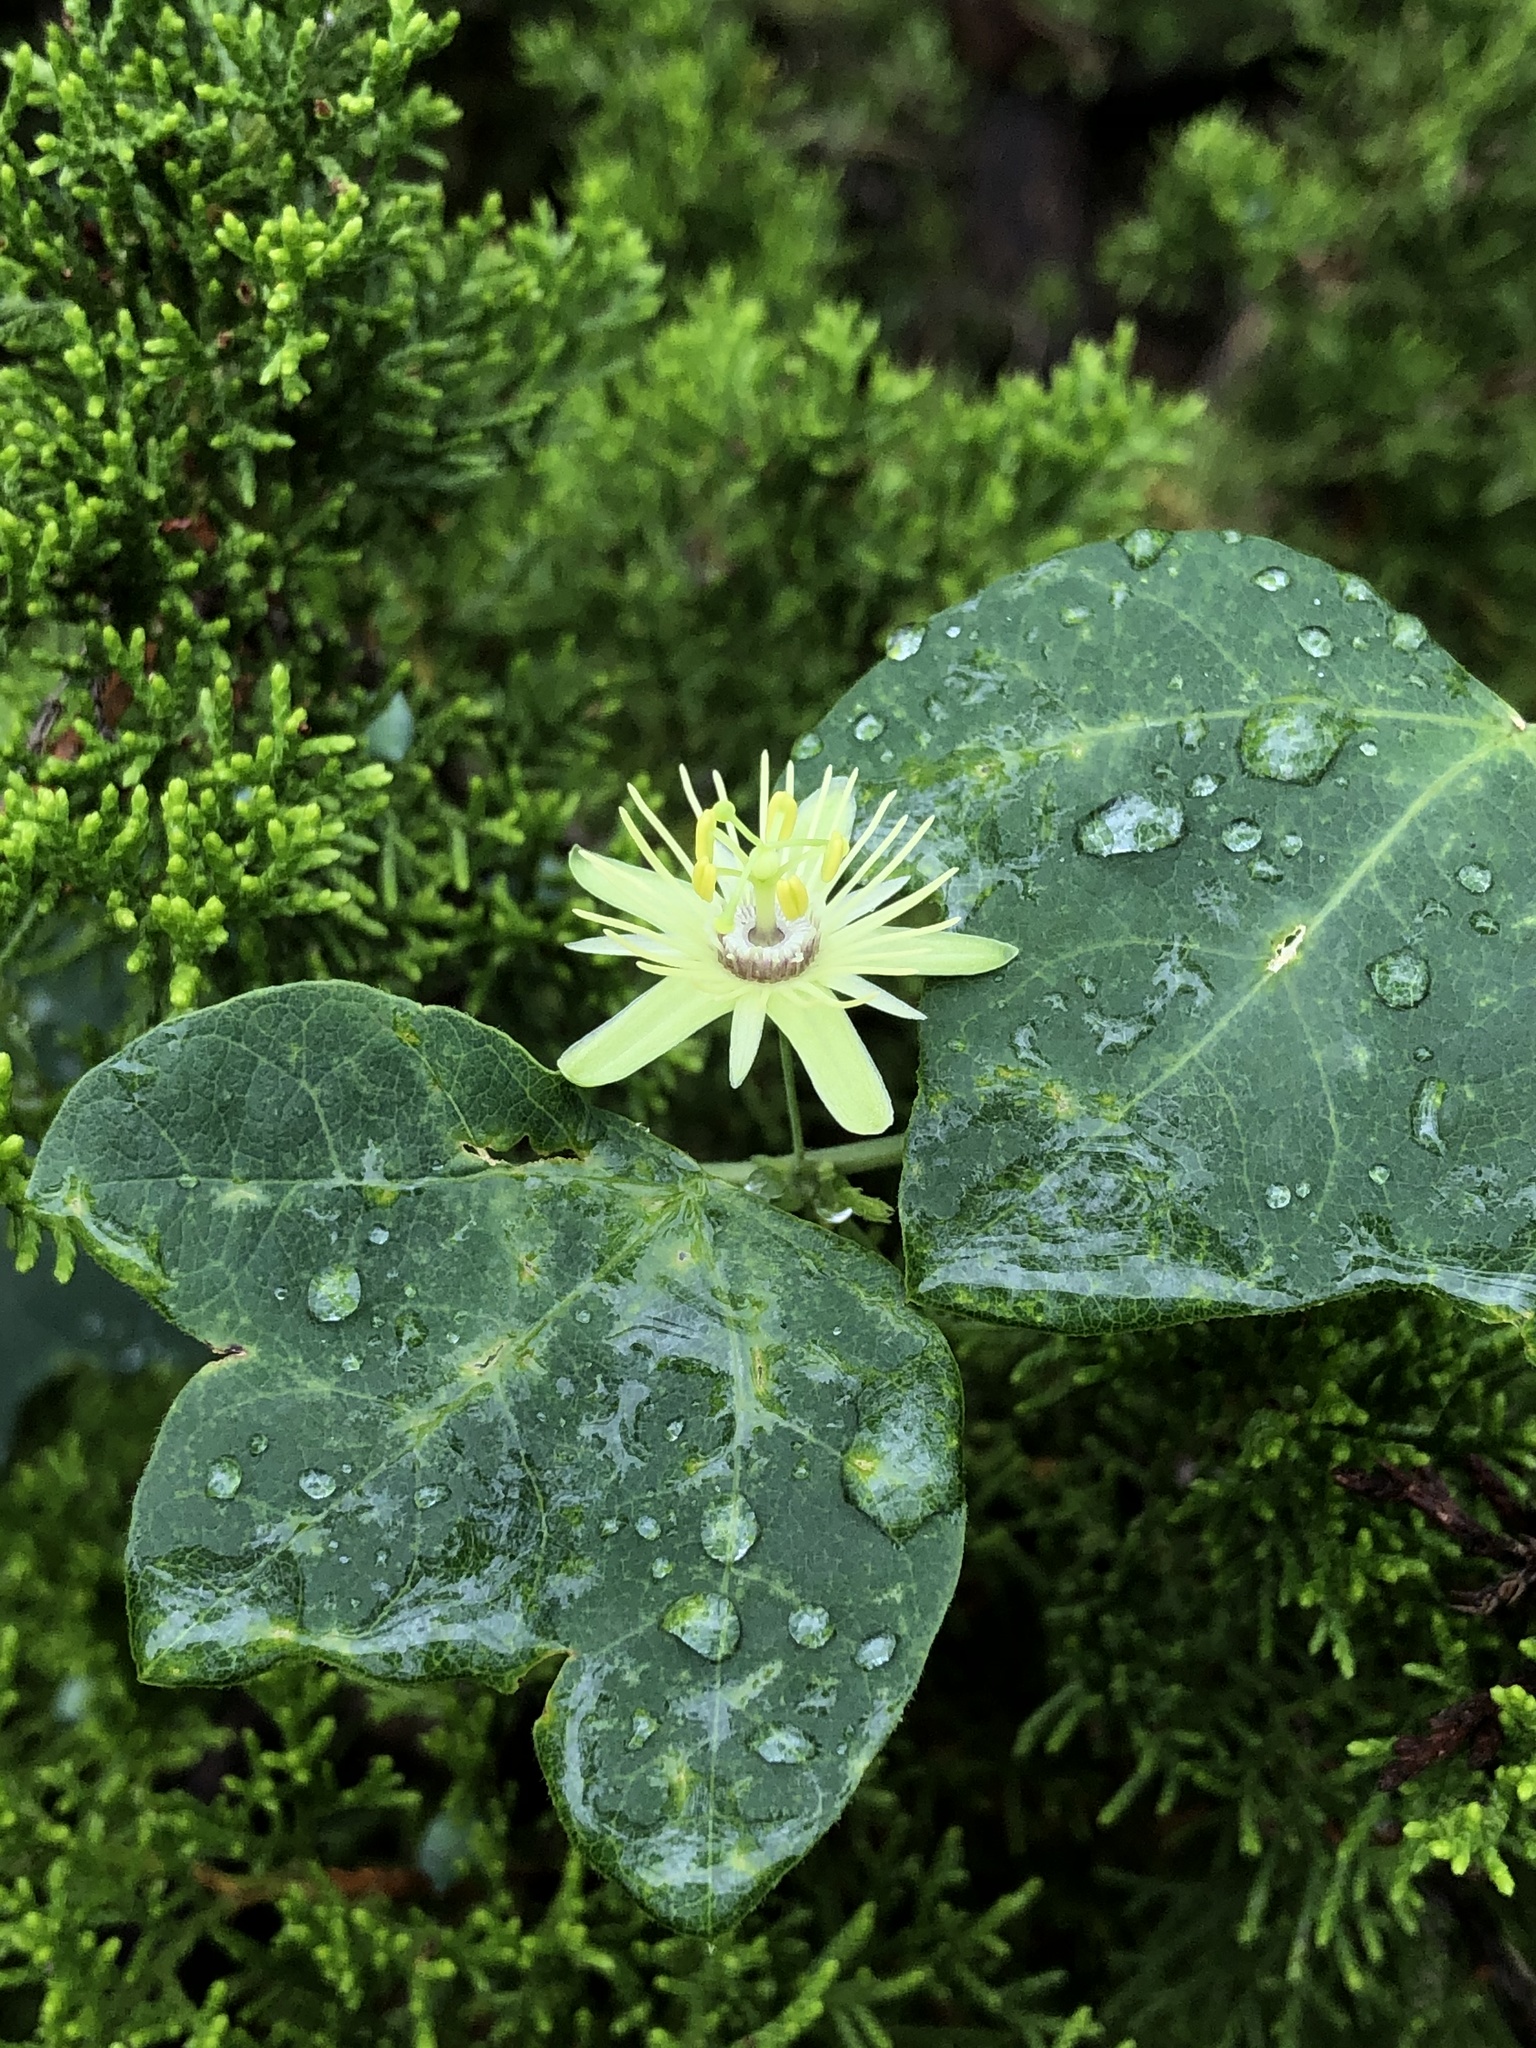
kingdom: Plantae
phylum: Tracheophyta
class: Magnoliopsida
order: Malpighiales
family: Passifloraceae
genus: Passiflora
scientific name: Passiflora lutea
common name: Yellow passionflower
